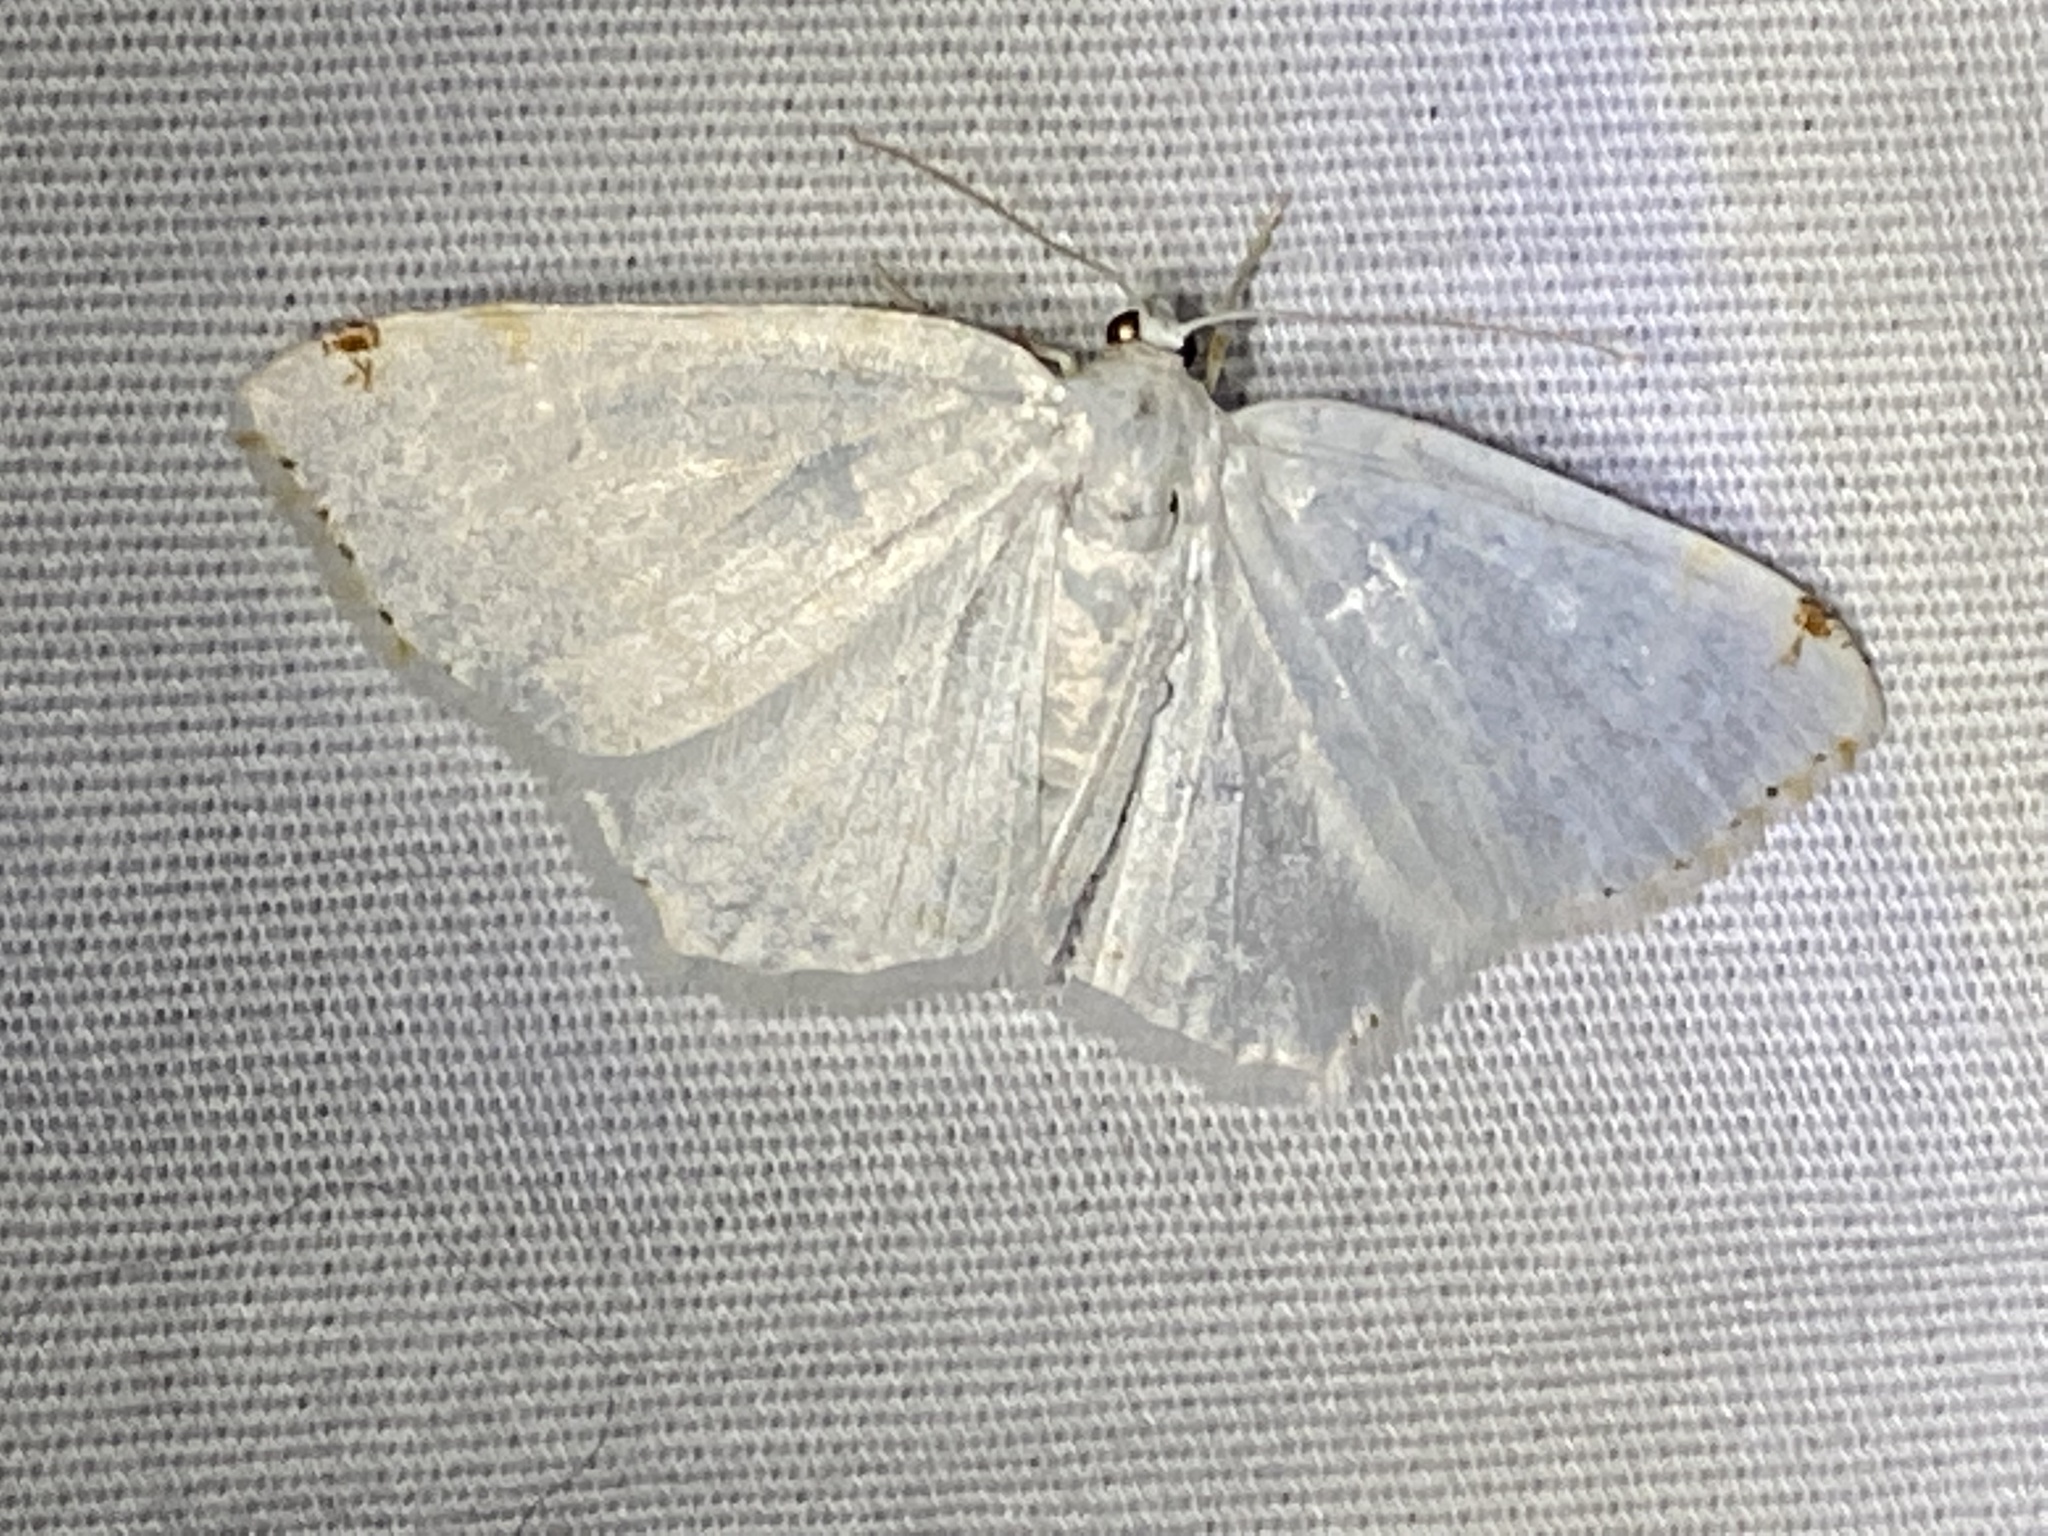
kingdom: Animalia
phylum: Arthropoda
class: Insecta
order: Lepidoptera
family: Geometridae
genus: Macaria
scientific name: Macaria pustularia
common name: Lesser maple spanworm moth
